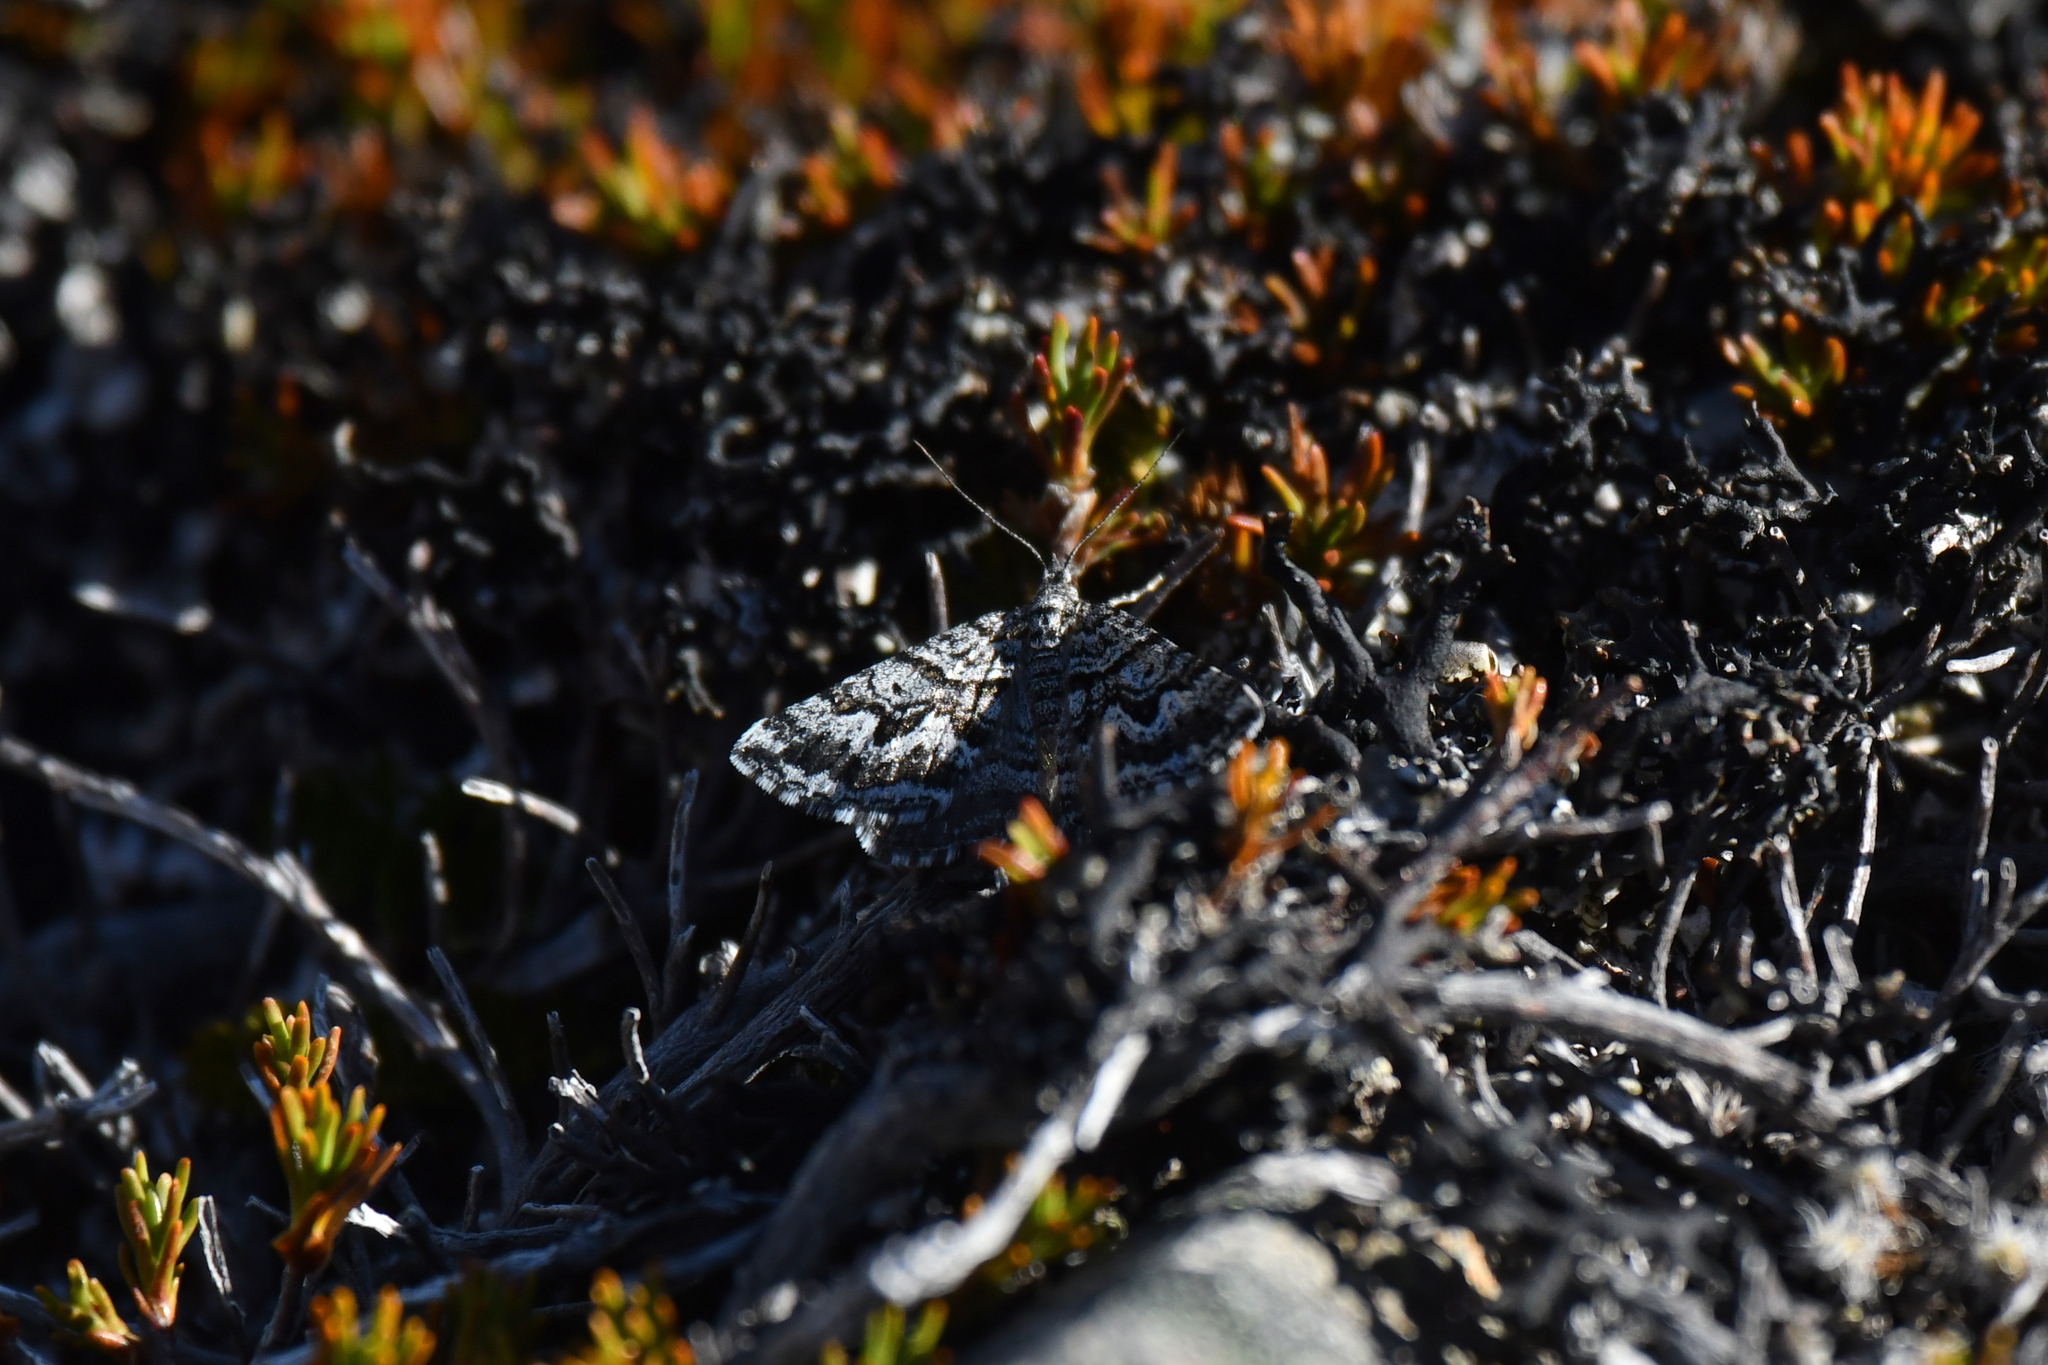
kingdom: Animalia
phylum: Arthropoda
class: Insecta
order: Lepidoptera
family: Geometridae
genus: Aponotoreas
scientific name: Aponotoreas anthracias
